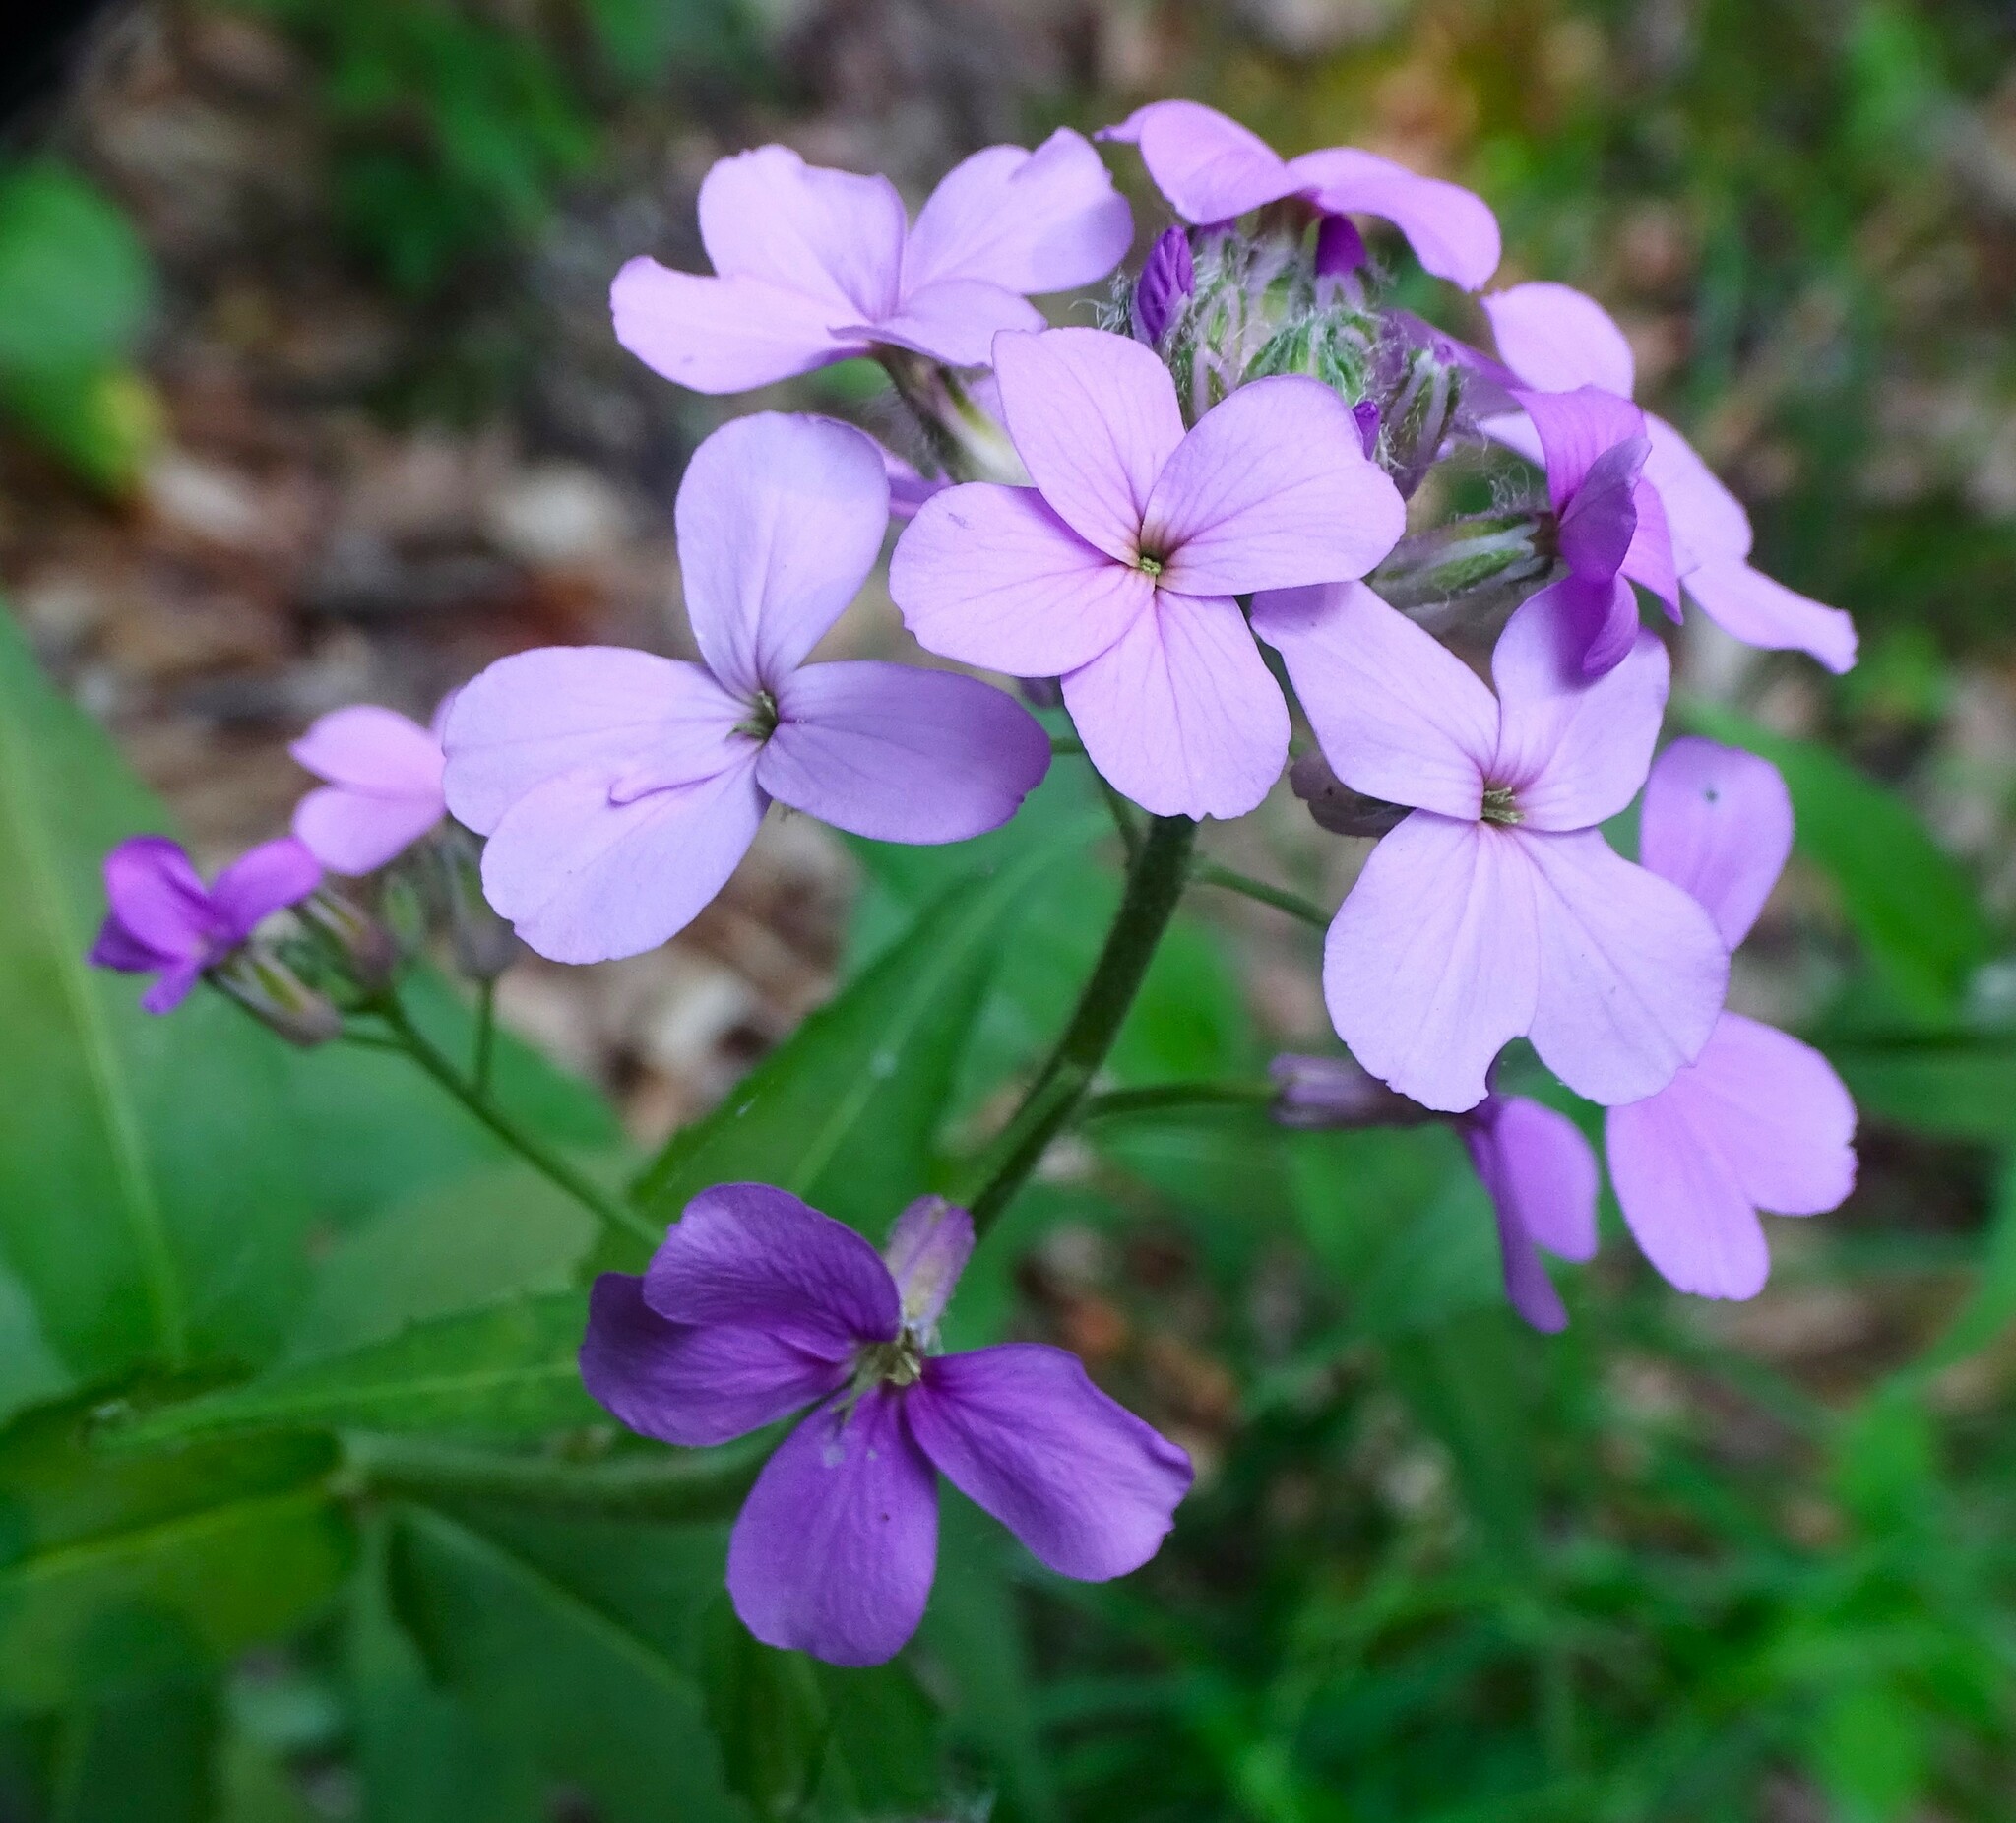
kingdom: Plantae
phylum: Tracheophyta
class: Magnoliopsida
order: Brassicales
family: Brassicaceae
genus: Hesperis
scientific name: Hesperis matronalis
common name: Dame's-violet
